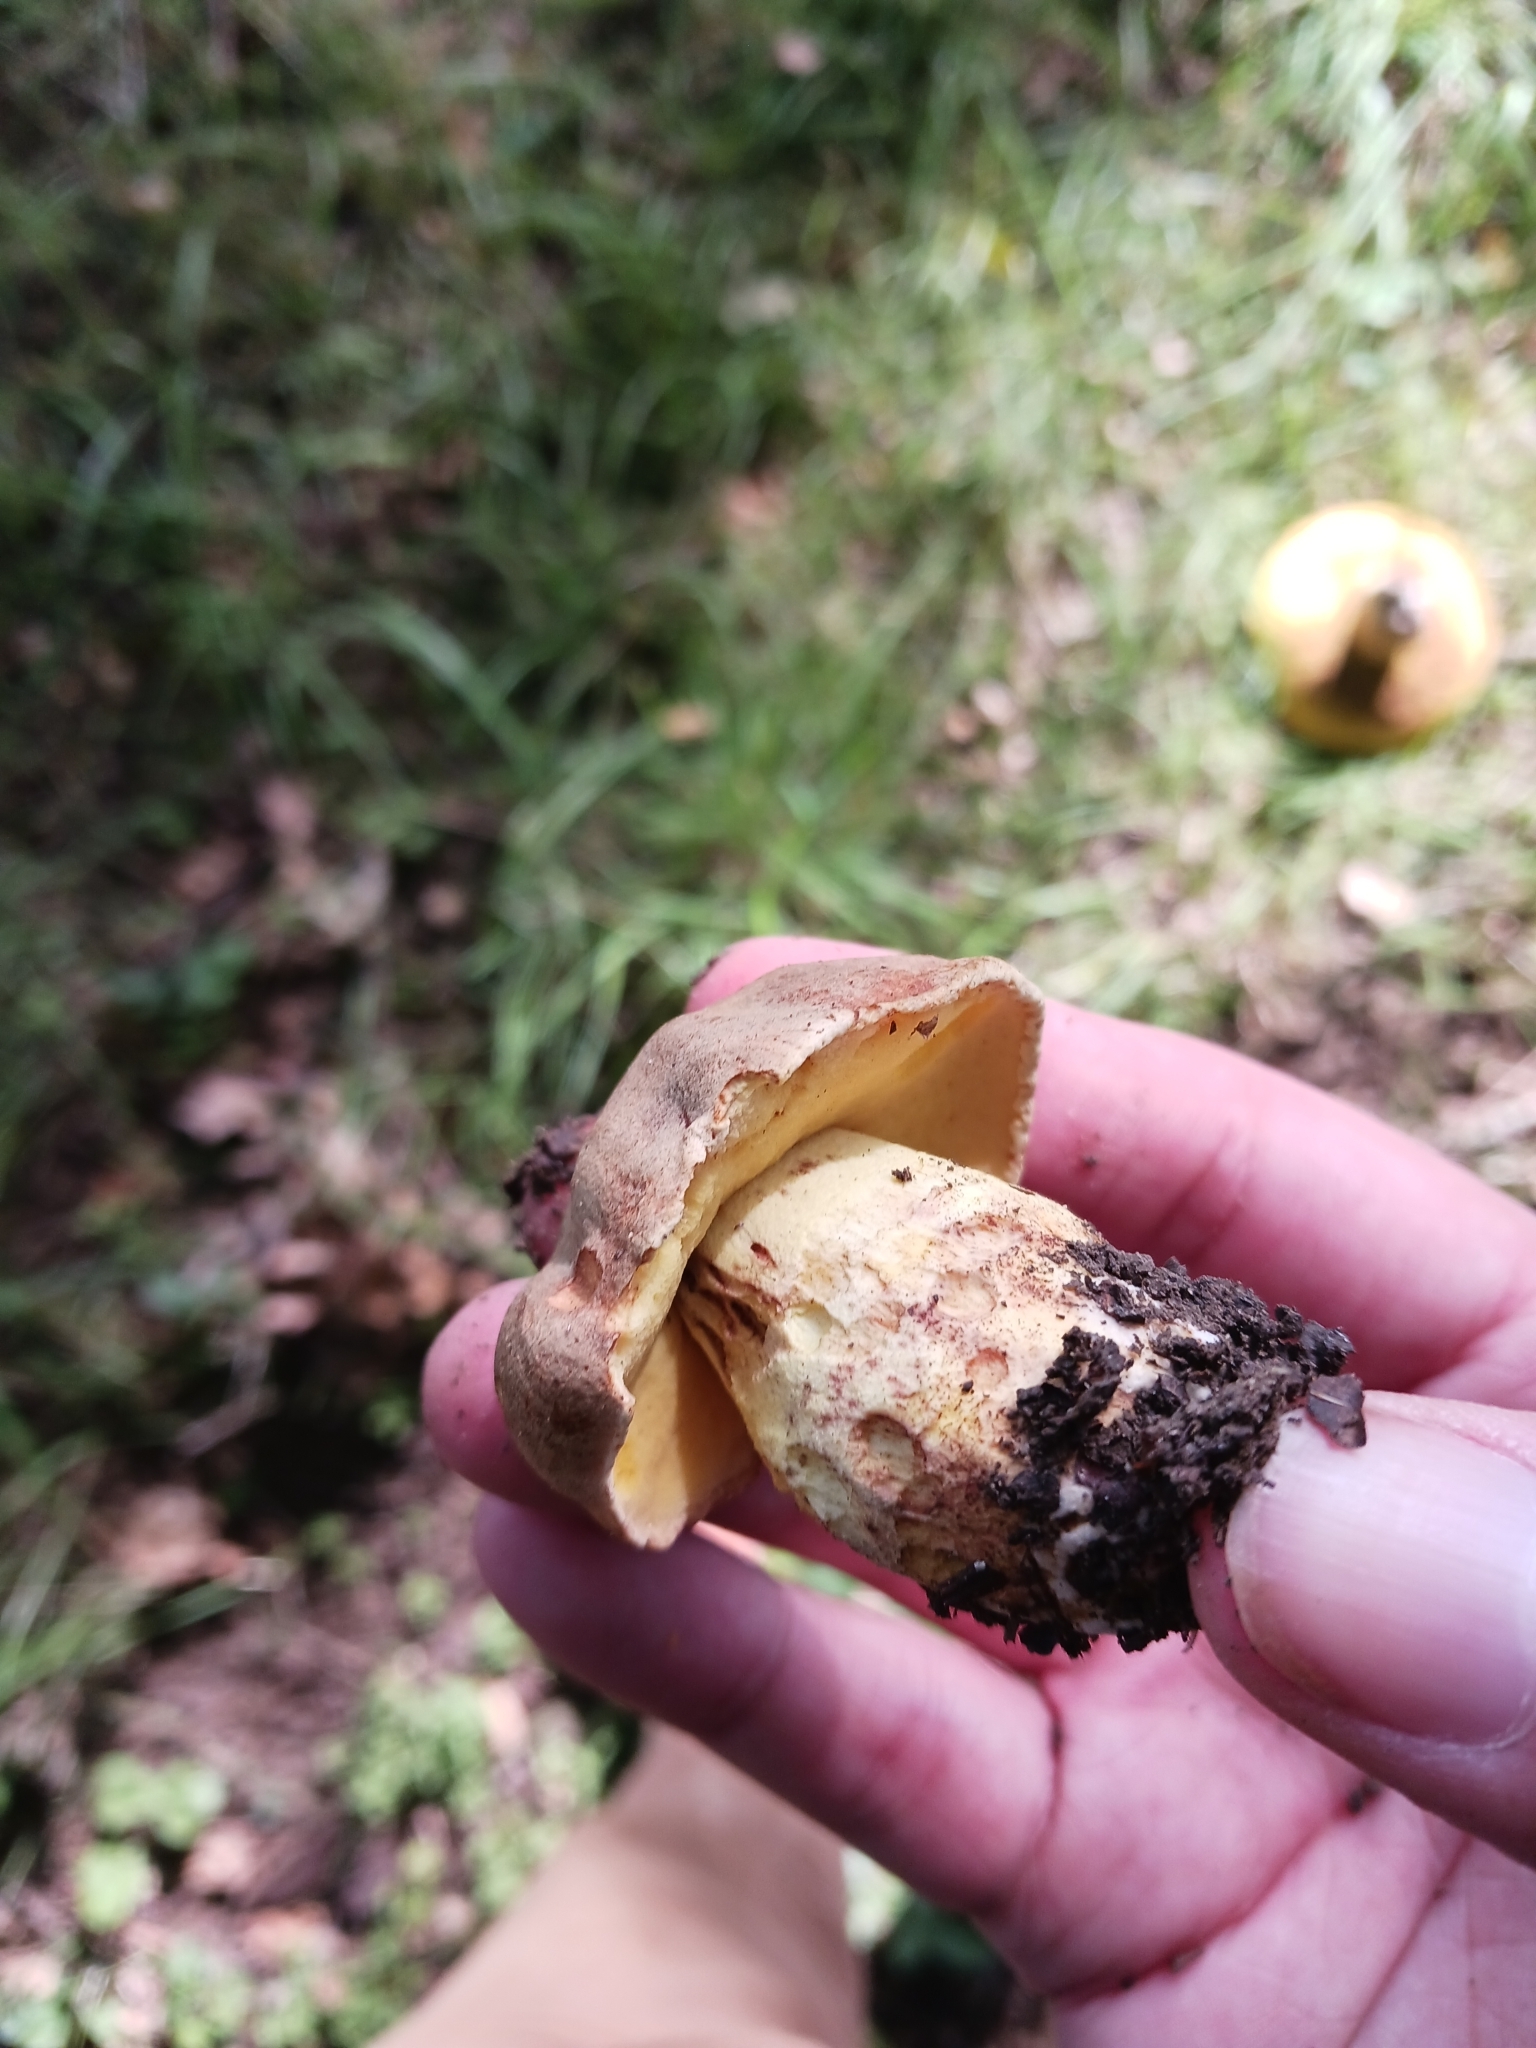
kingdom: Fungi
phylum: Basidiomycota
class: Agaricomycetes
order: Boletales
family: Boletaceae
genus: Hemileccinum
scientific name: Hemileccinum impolitum
